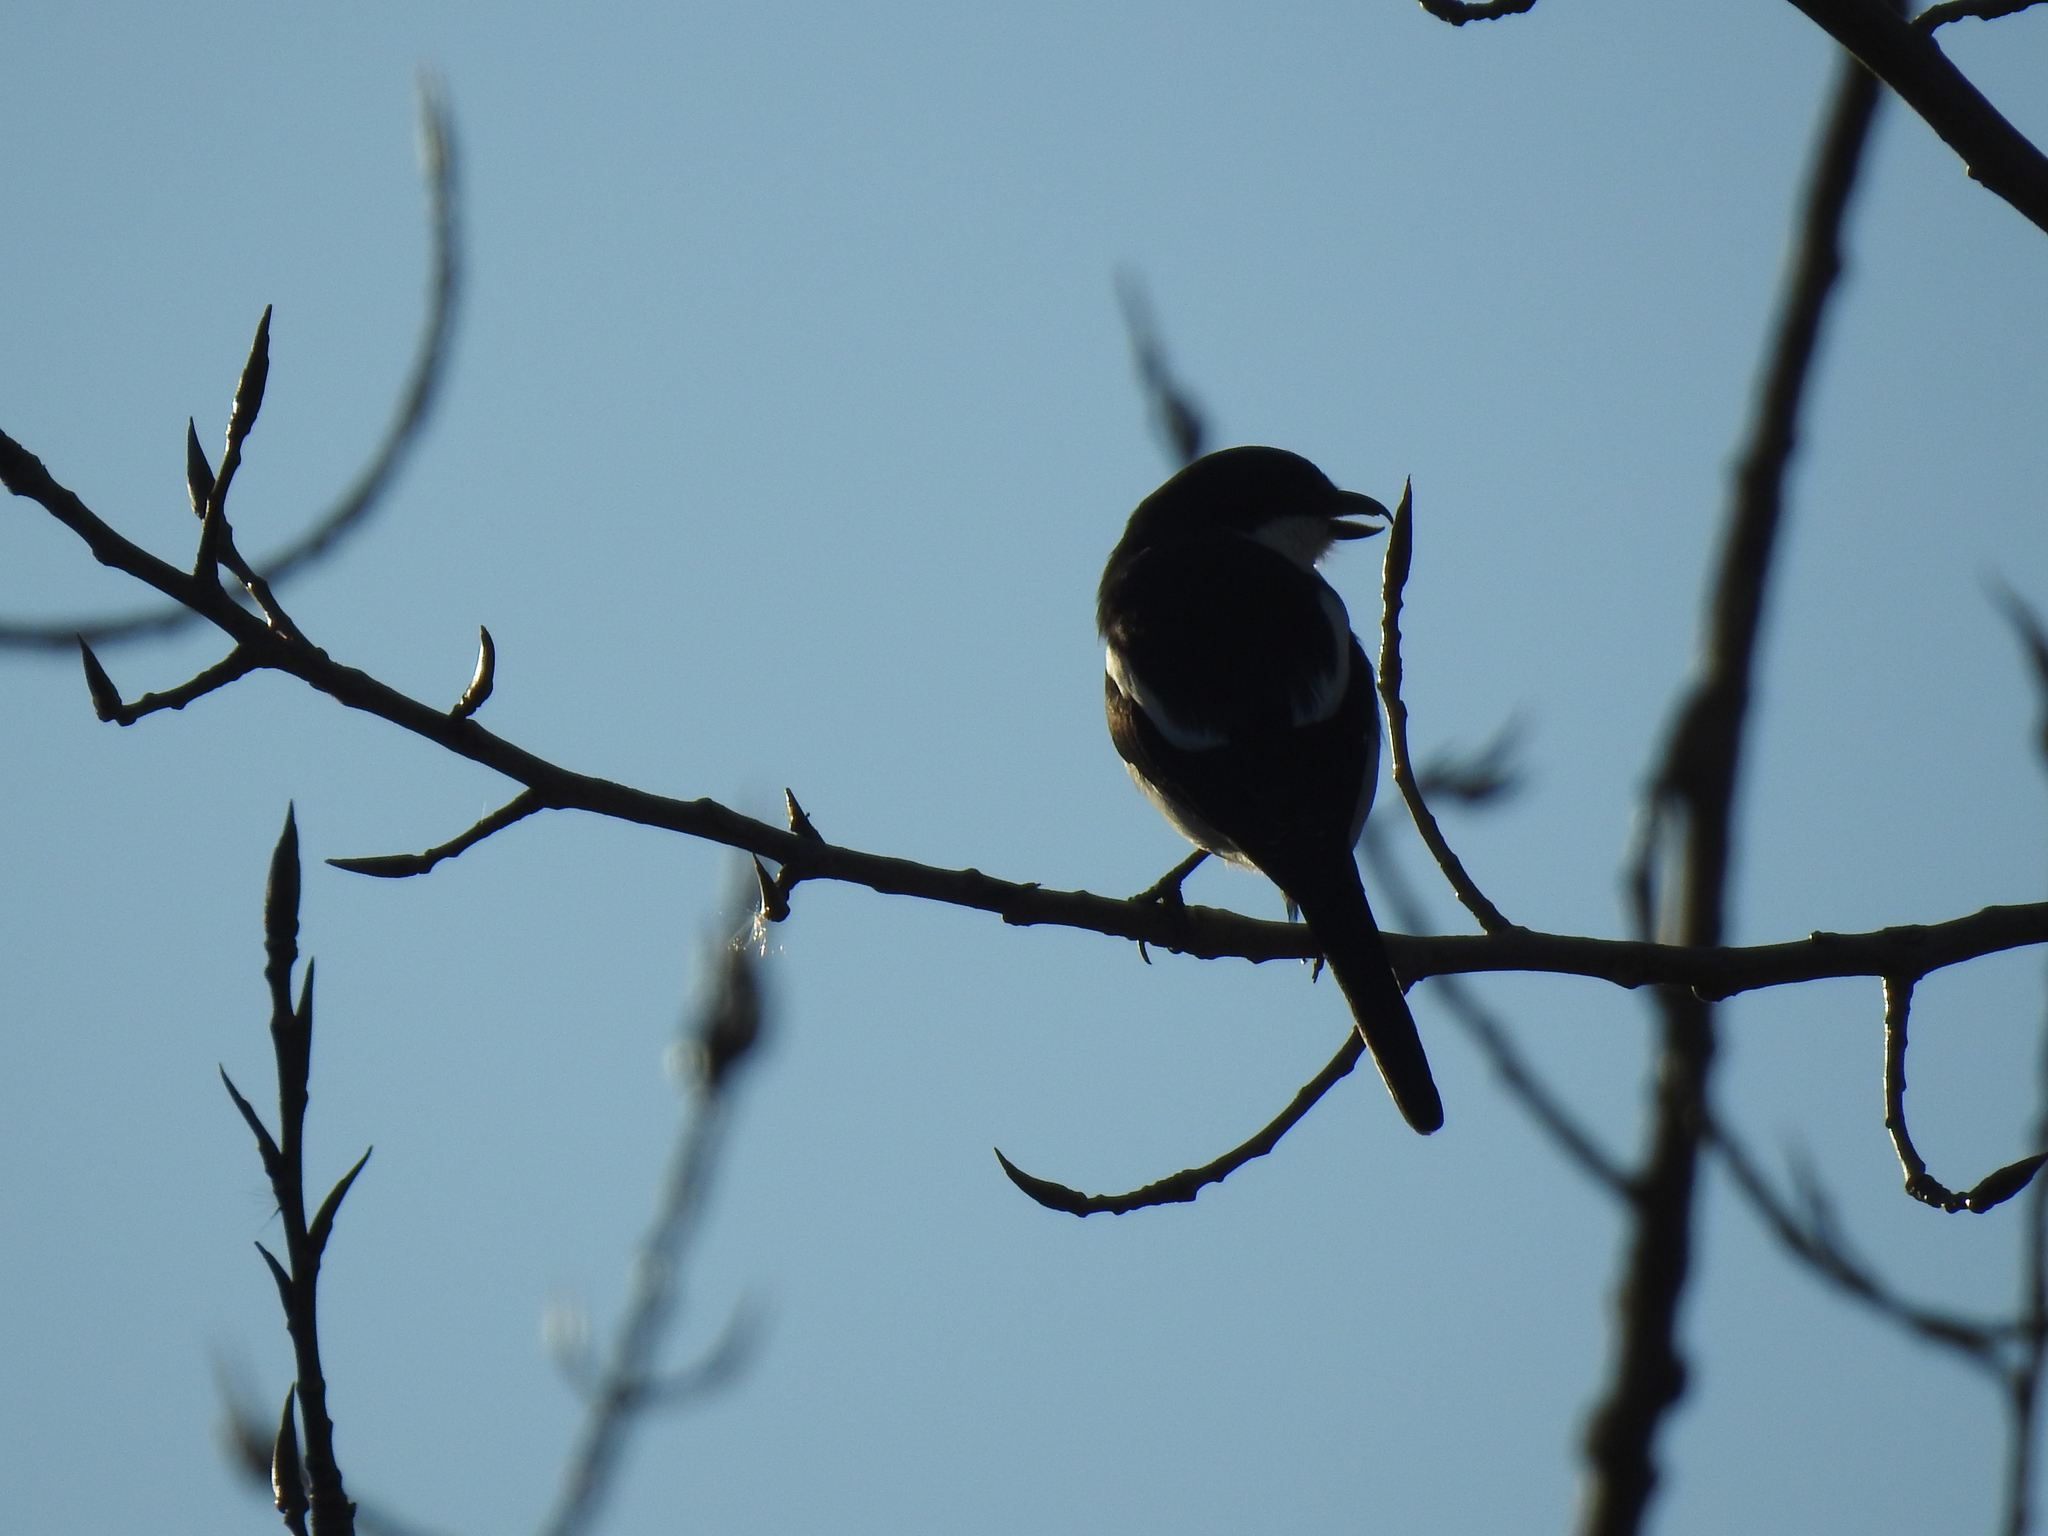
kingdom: Animalia
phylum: Chordata
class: Aves
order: Passeriformes
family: Laniidae
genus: Lanius
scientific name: Lanius collaris
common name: Southern fiscal
